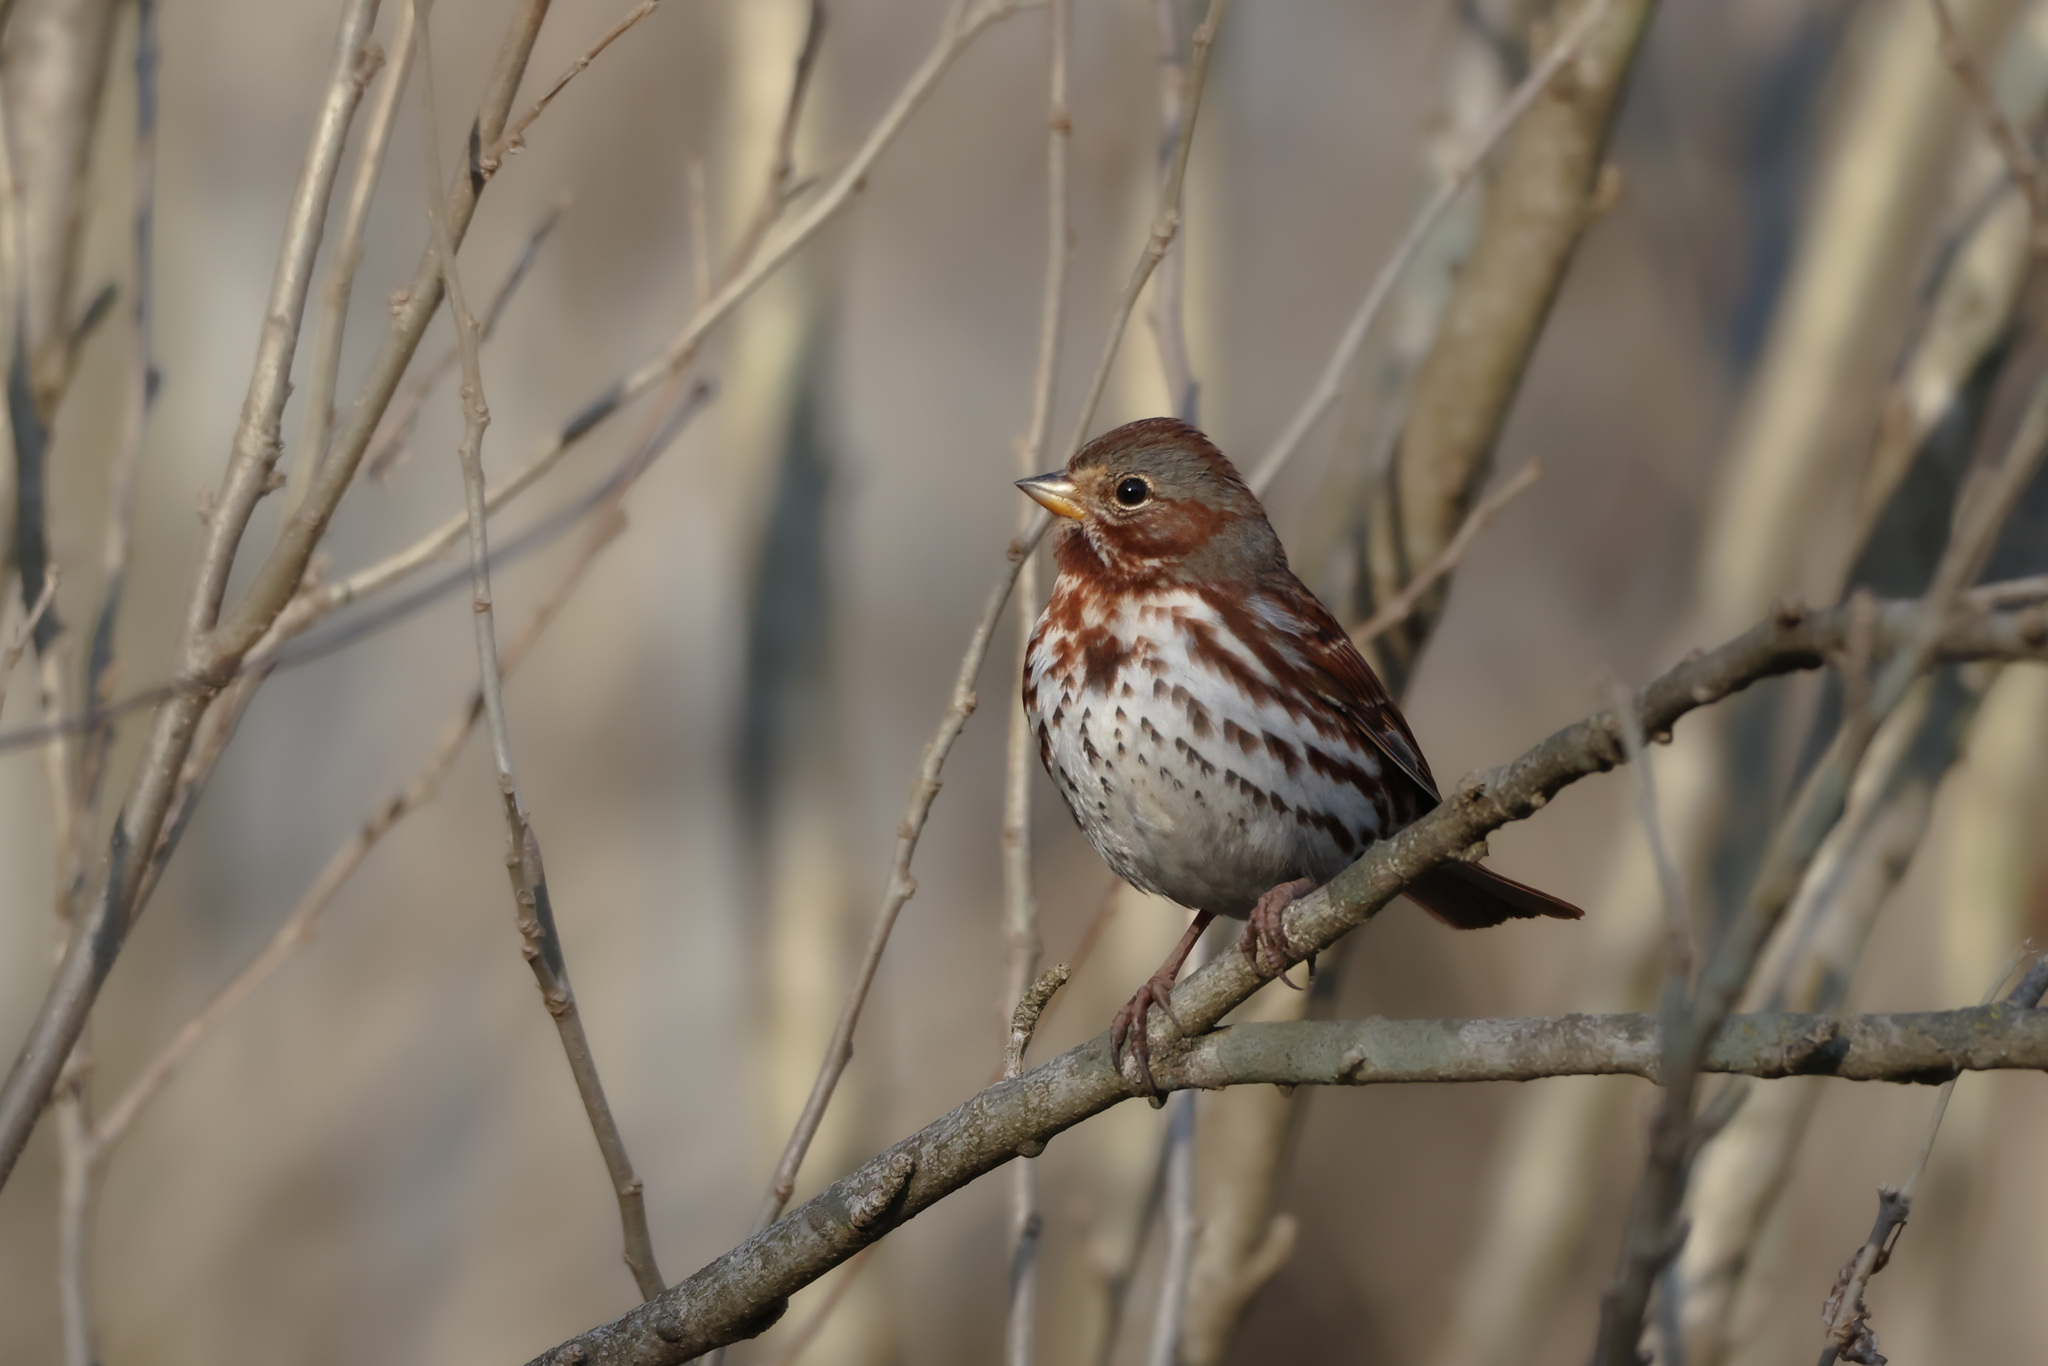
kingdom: Animalia
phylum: Chordata
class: Aves
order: Passeriformes
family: Passerellidae
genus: Passerella
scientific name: Passerella iliaca
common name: Fox sparrow
